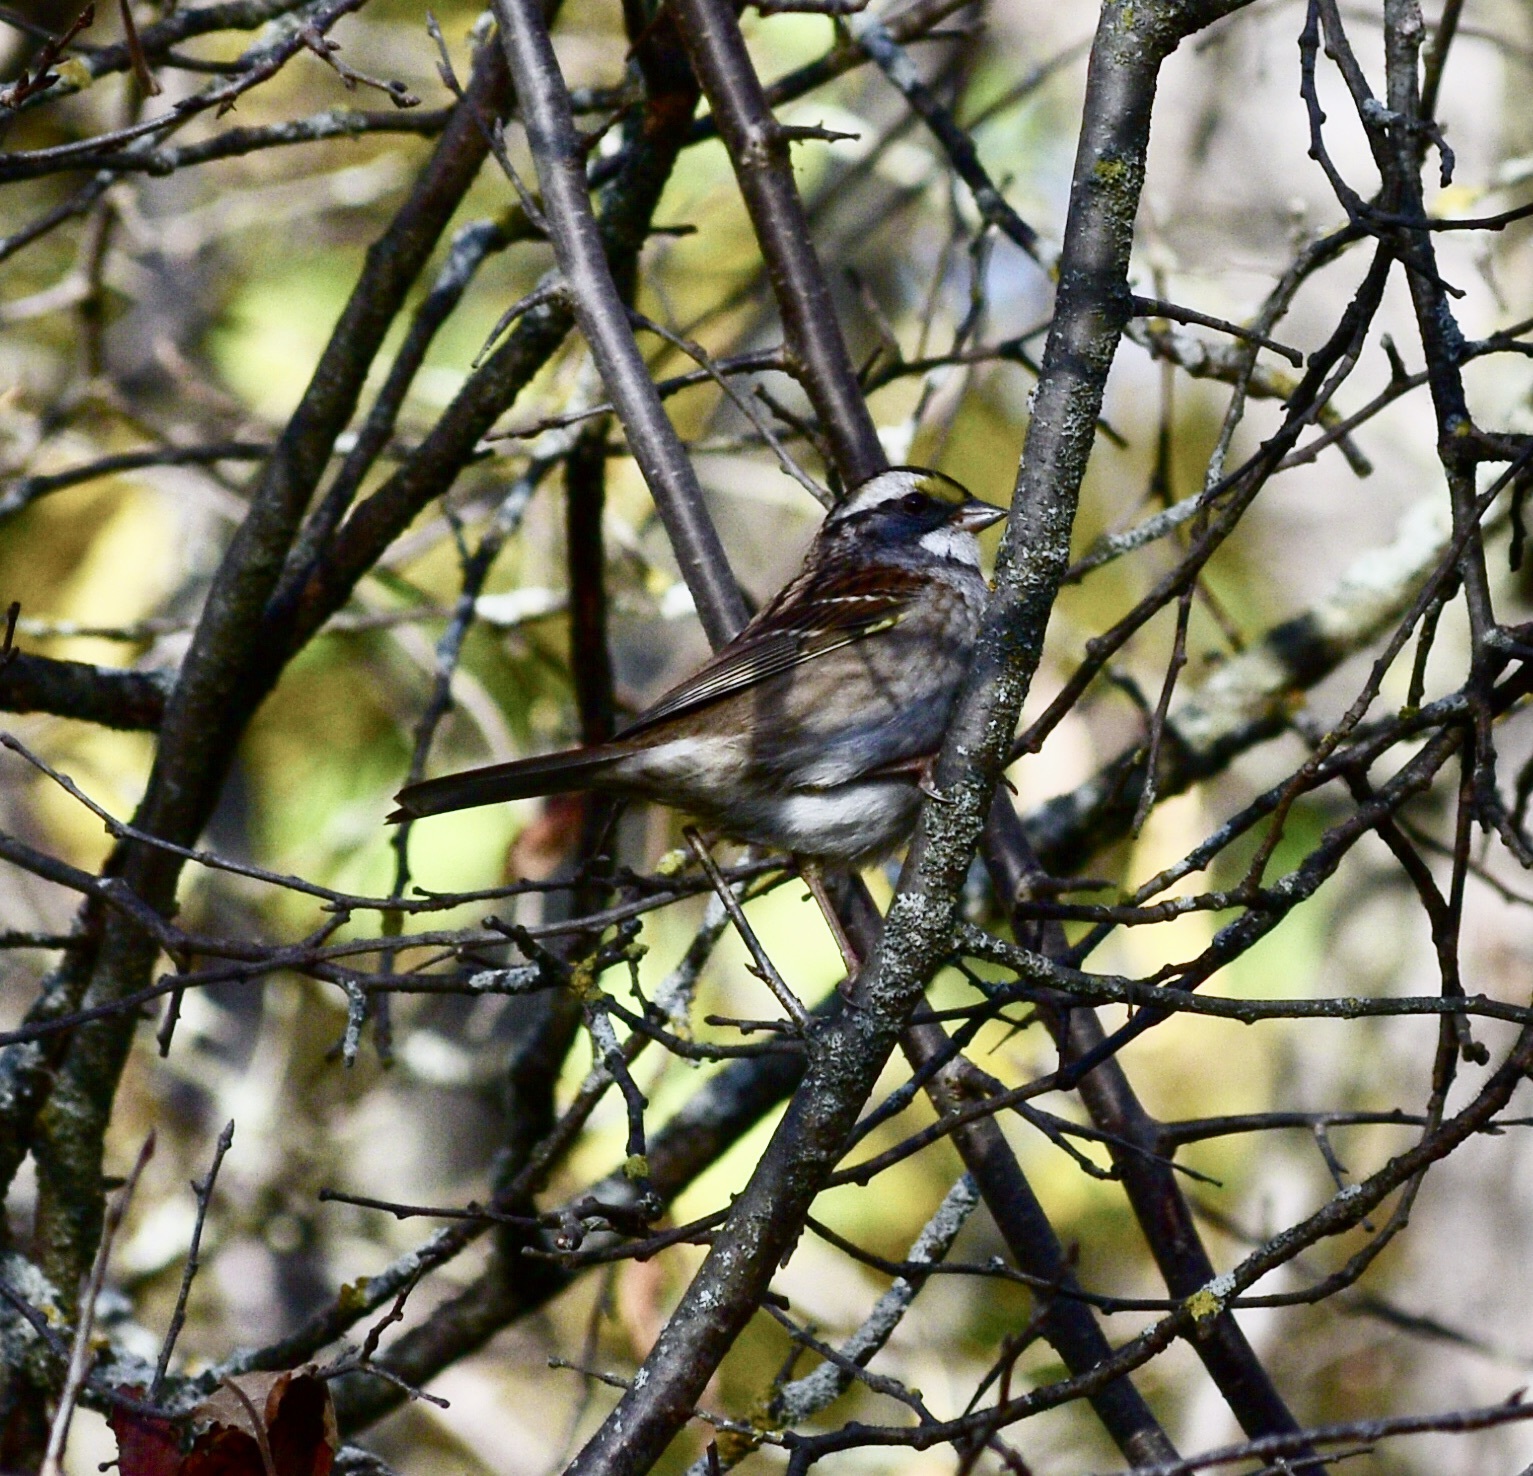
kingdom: Animalia
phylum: Chordata
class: Aves
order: Passeriformes
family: Passerellidae
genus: Zonotrichia
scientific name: Zonotrichia albicollis
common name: White-throated sparrow
